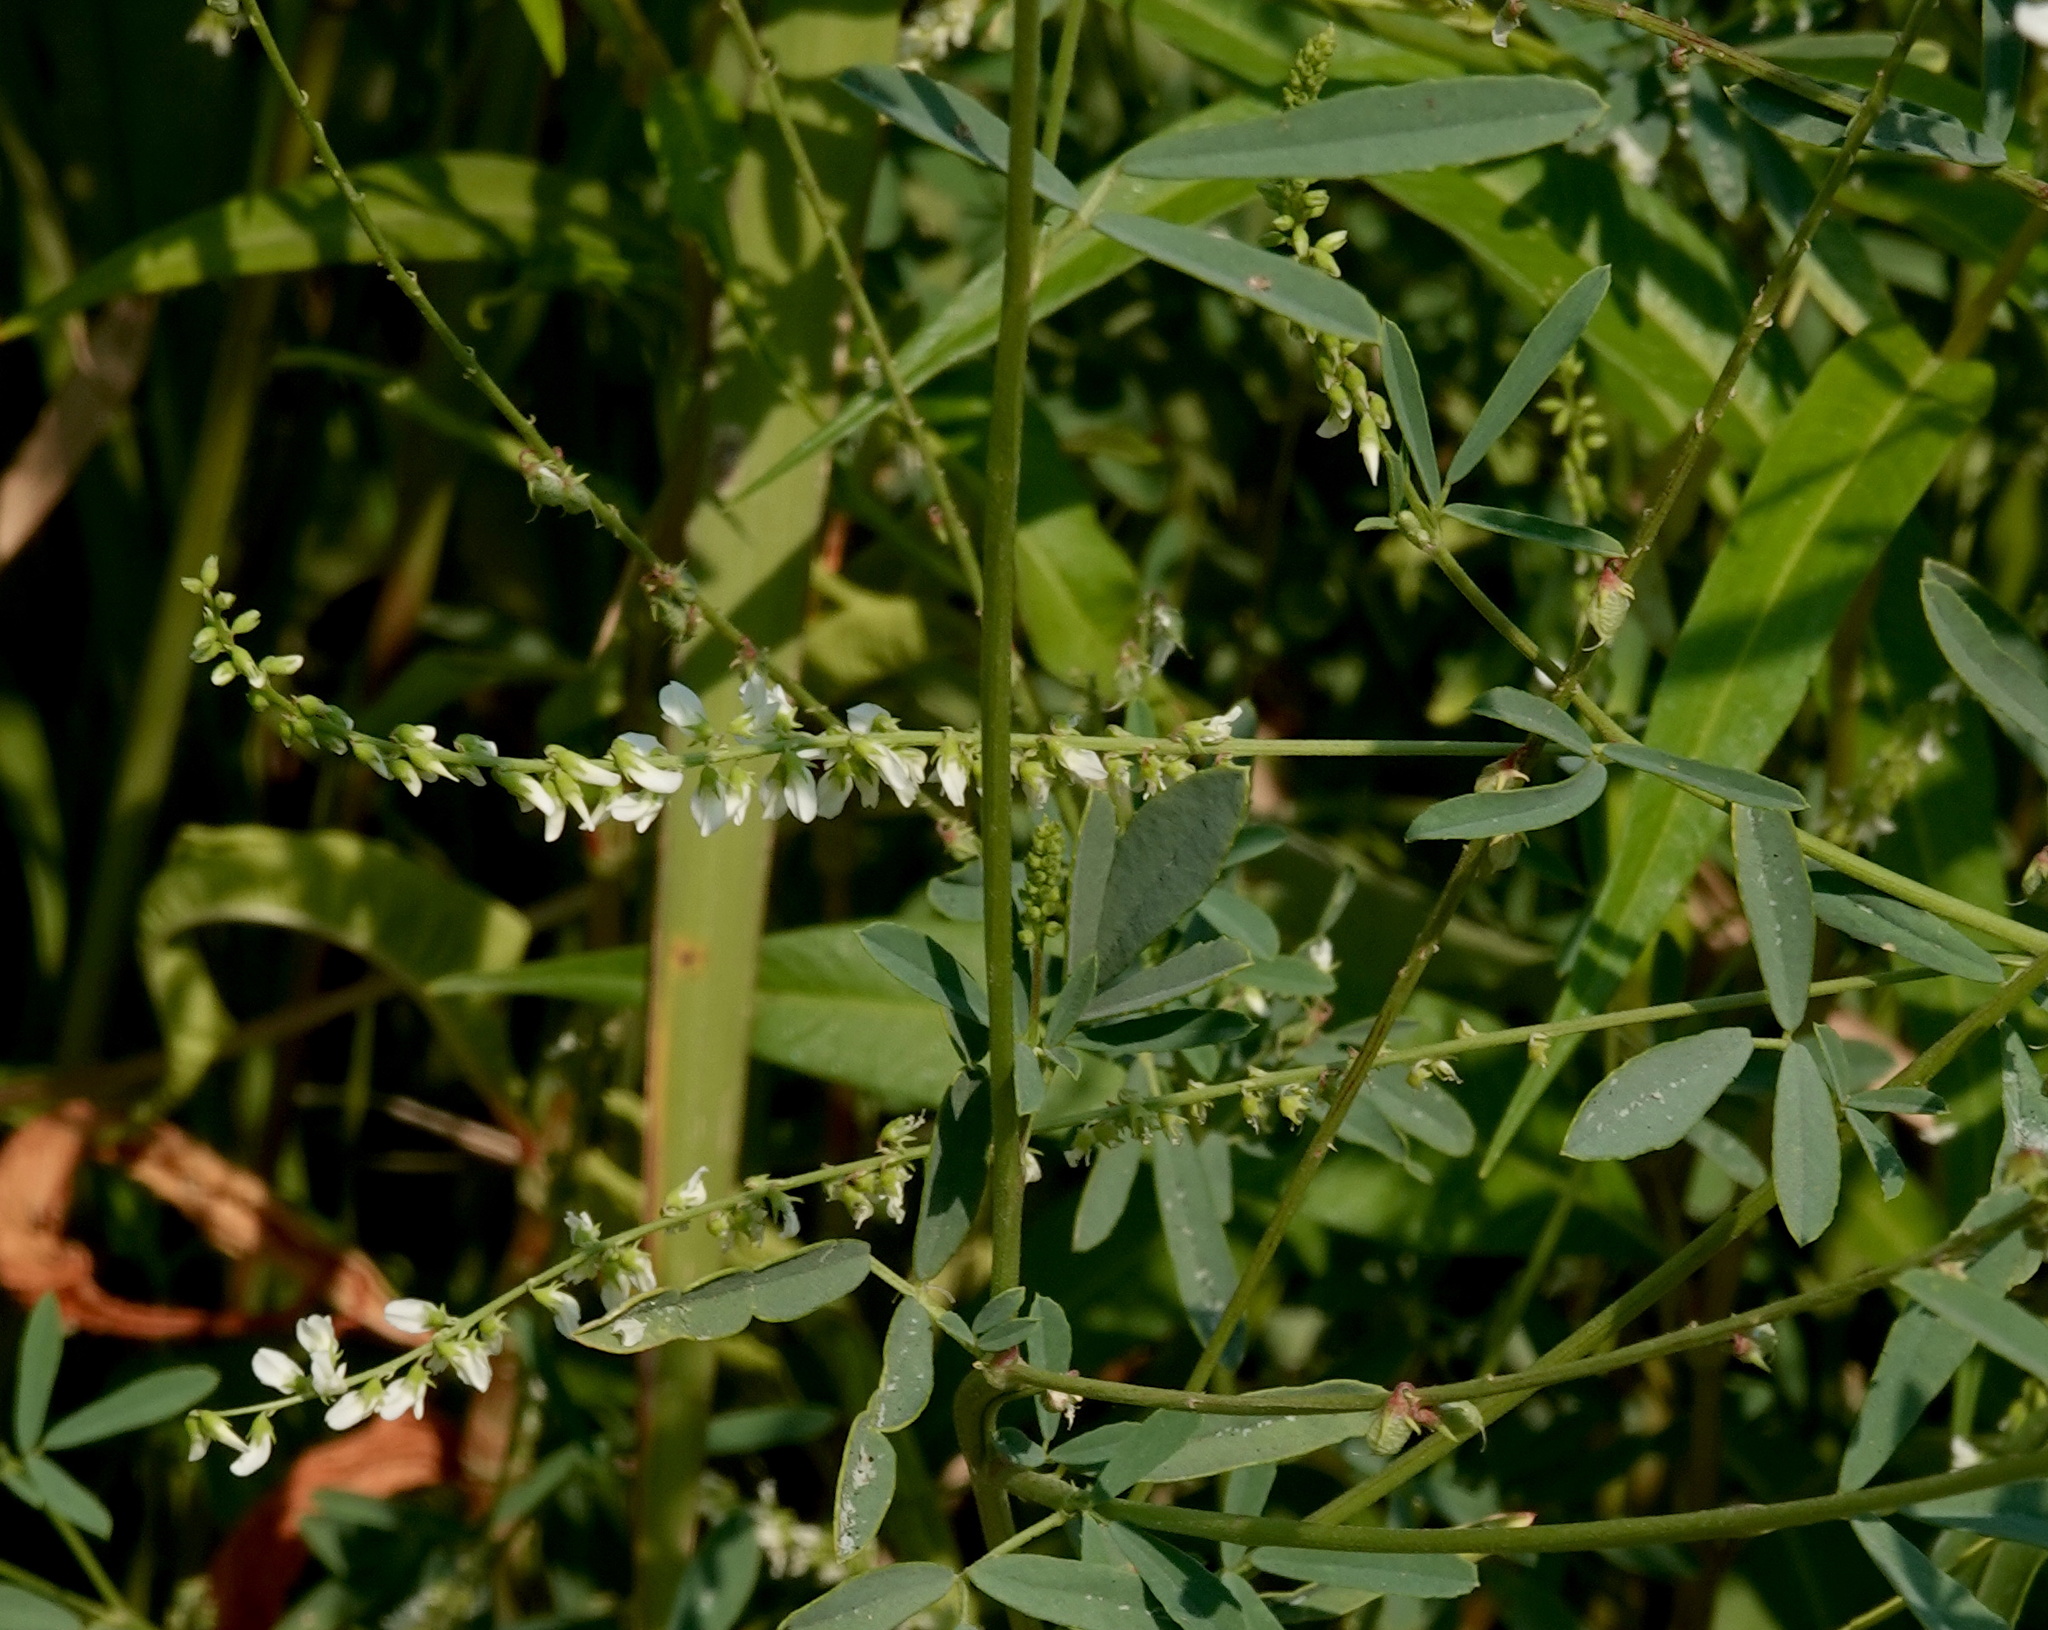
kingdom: Plantae
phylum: Tracheophyta
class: Magnoliopsida
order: Fabales
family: Fabaceae
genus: Melilotus
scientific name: Melilotus albus
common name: White melilot
